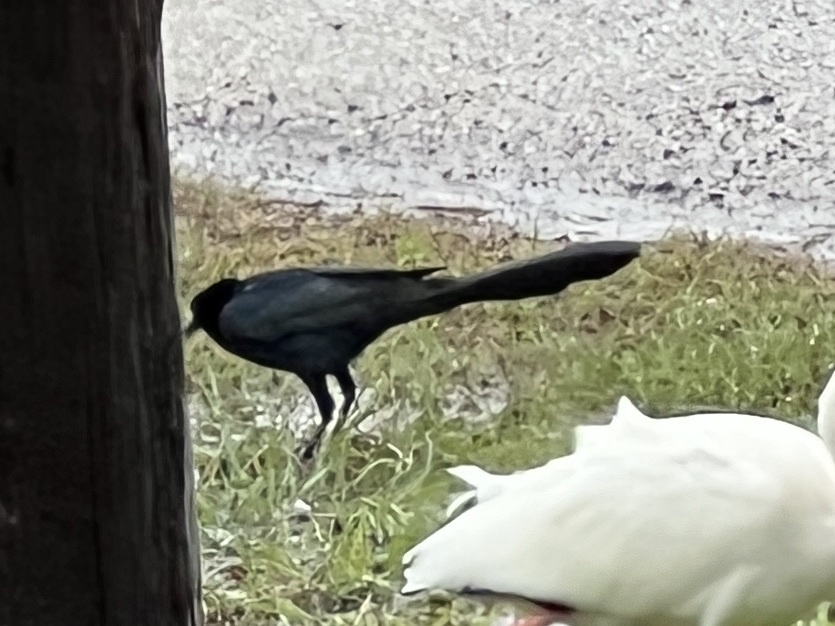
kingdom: Animalia
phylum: Chordata
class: Aves
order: Passeriformes
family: Icteridae
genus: Quiscalus
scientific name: Quiscalus mexicanus
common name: Great-tailed grackle
